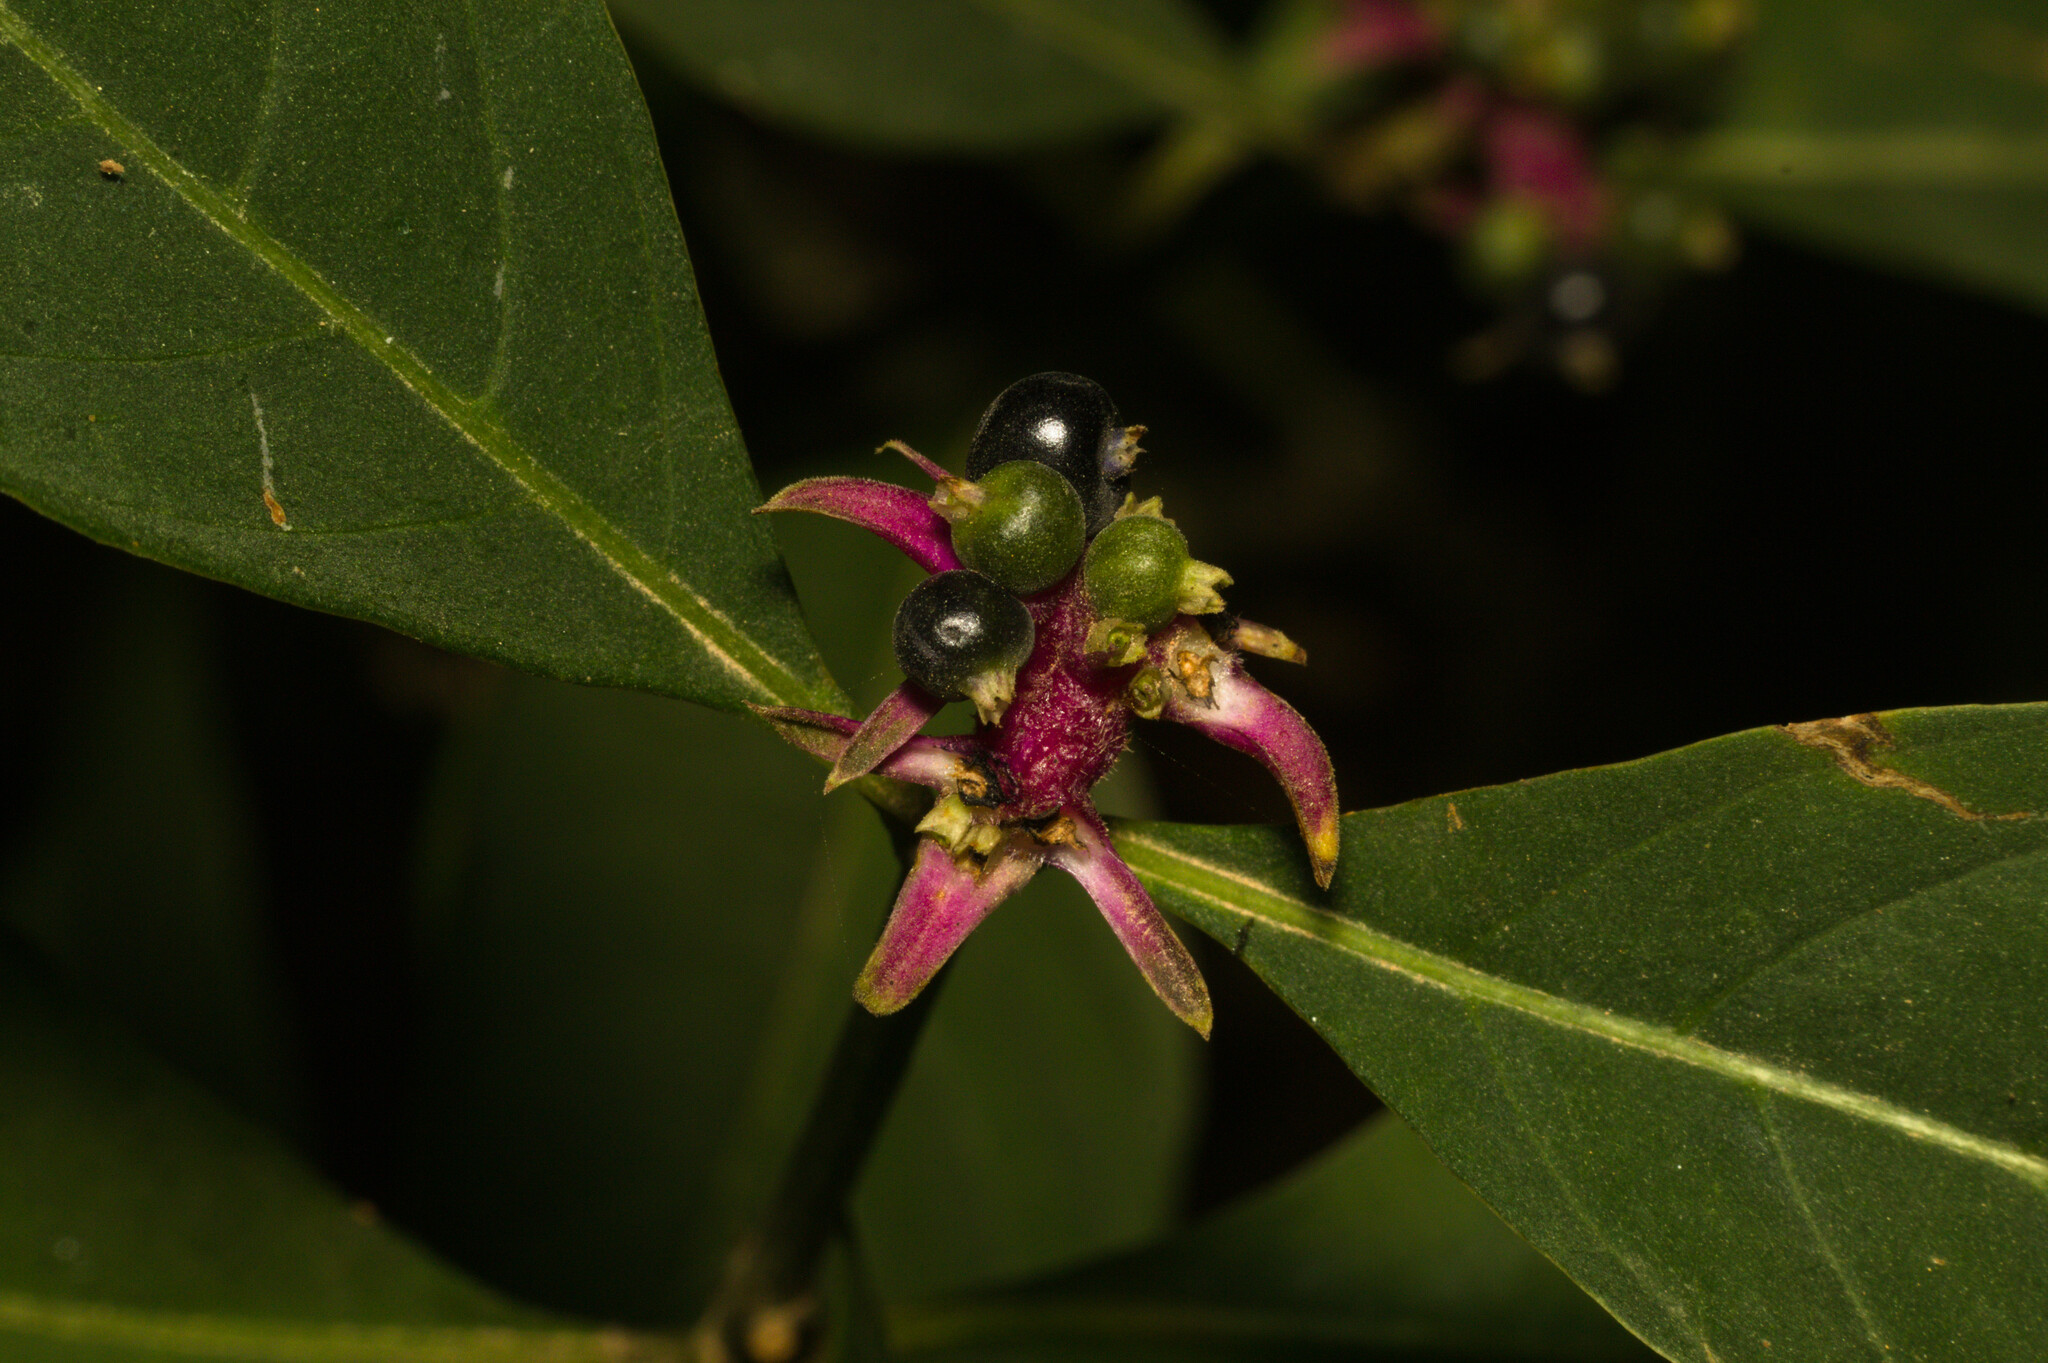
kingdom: Plantae
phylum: Tracheophyta
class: Magnoliopsida
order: Gentianales
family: Rubiaceae
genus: Palicourea
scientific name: Palicourea hoffmannseggiana
